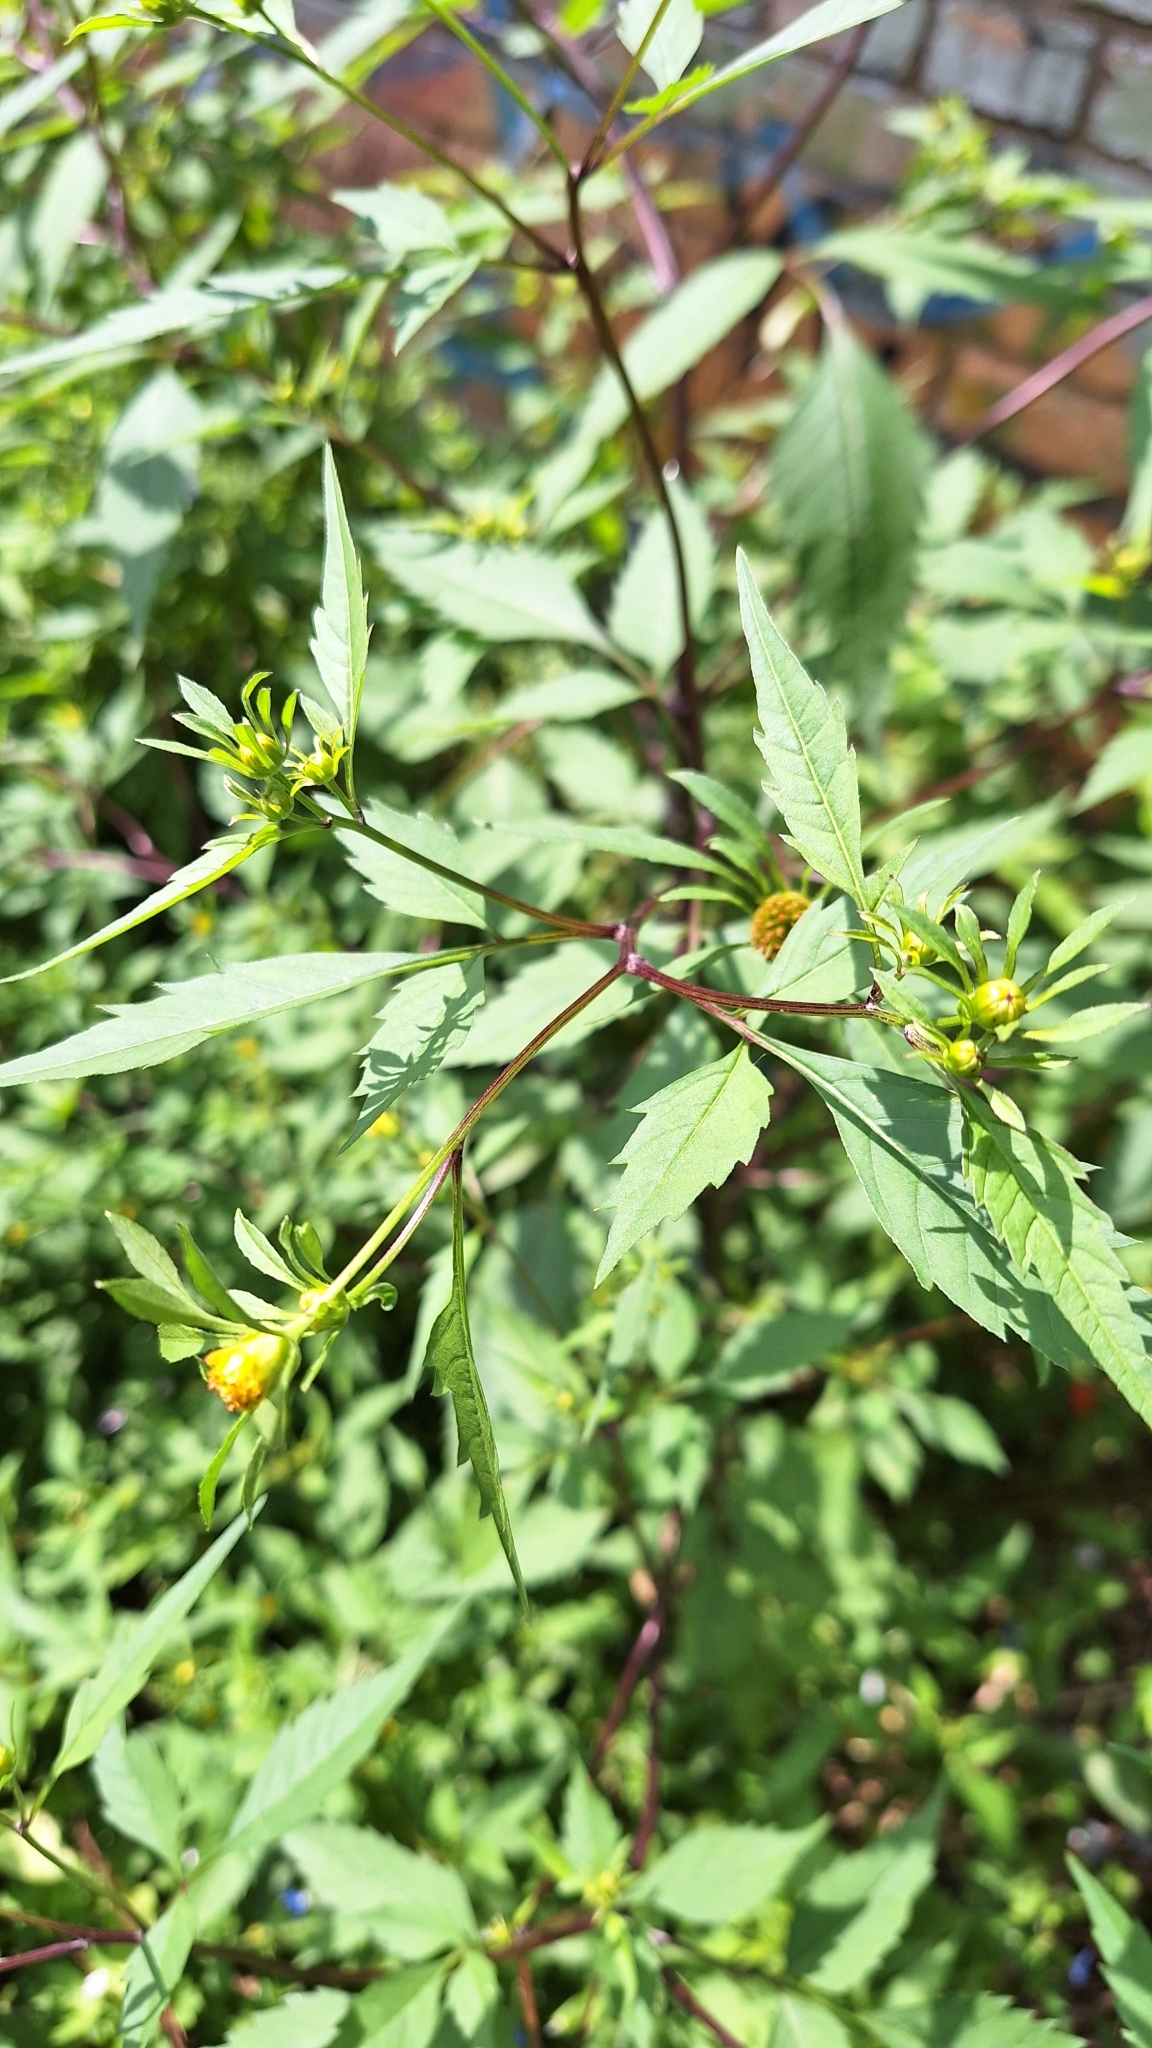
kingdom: Plantae
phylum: Tracheophyta
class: Magnoliopsida
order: Asterales
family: Asteraceae
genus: Bidens
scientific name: Bidens frondosa
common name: Beggarticks
